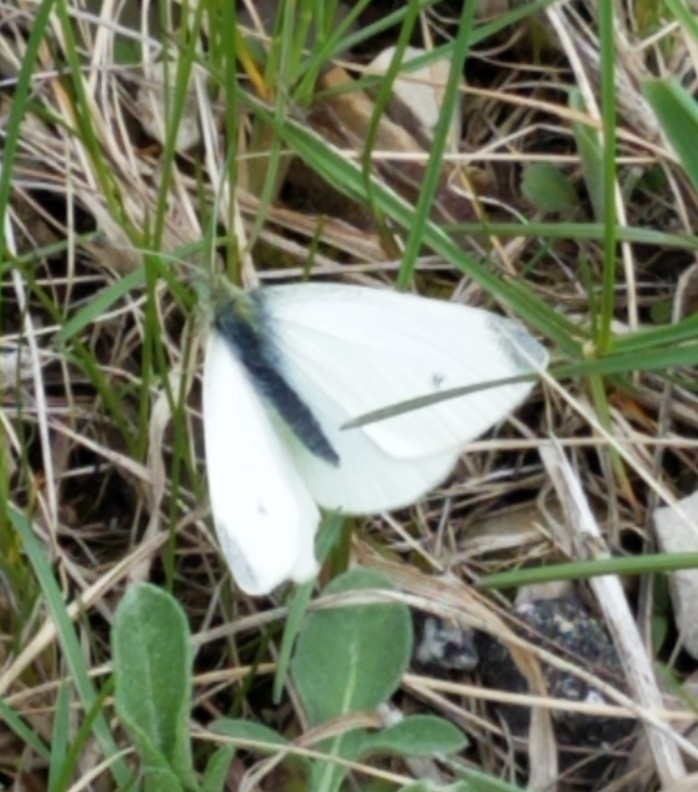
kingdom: Animalia
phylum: Arthropoda
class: Insecta
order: Lepidoptera
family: Pieridae
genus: Pieris
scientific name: Pieris rapae
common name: Small white
